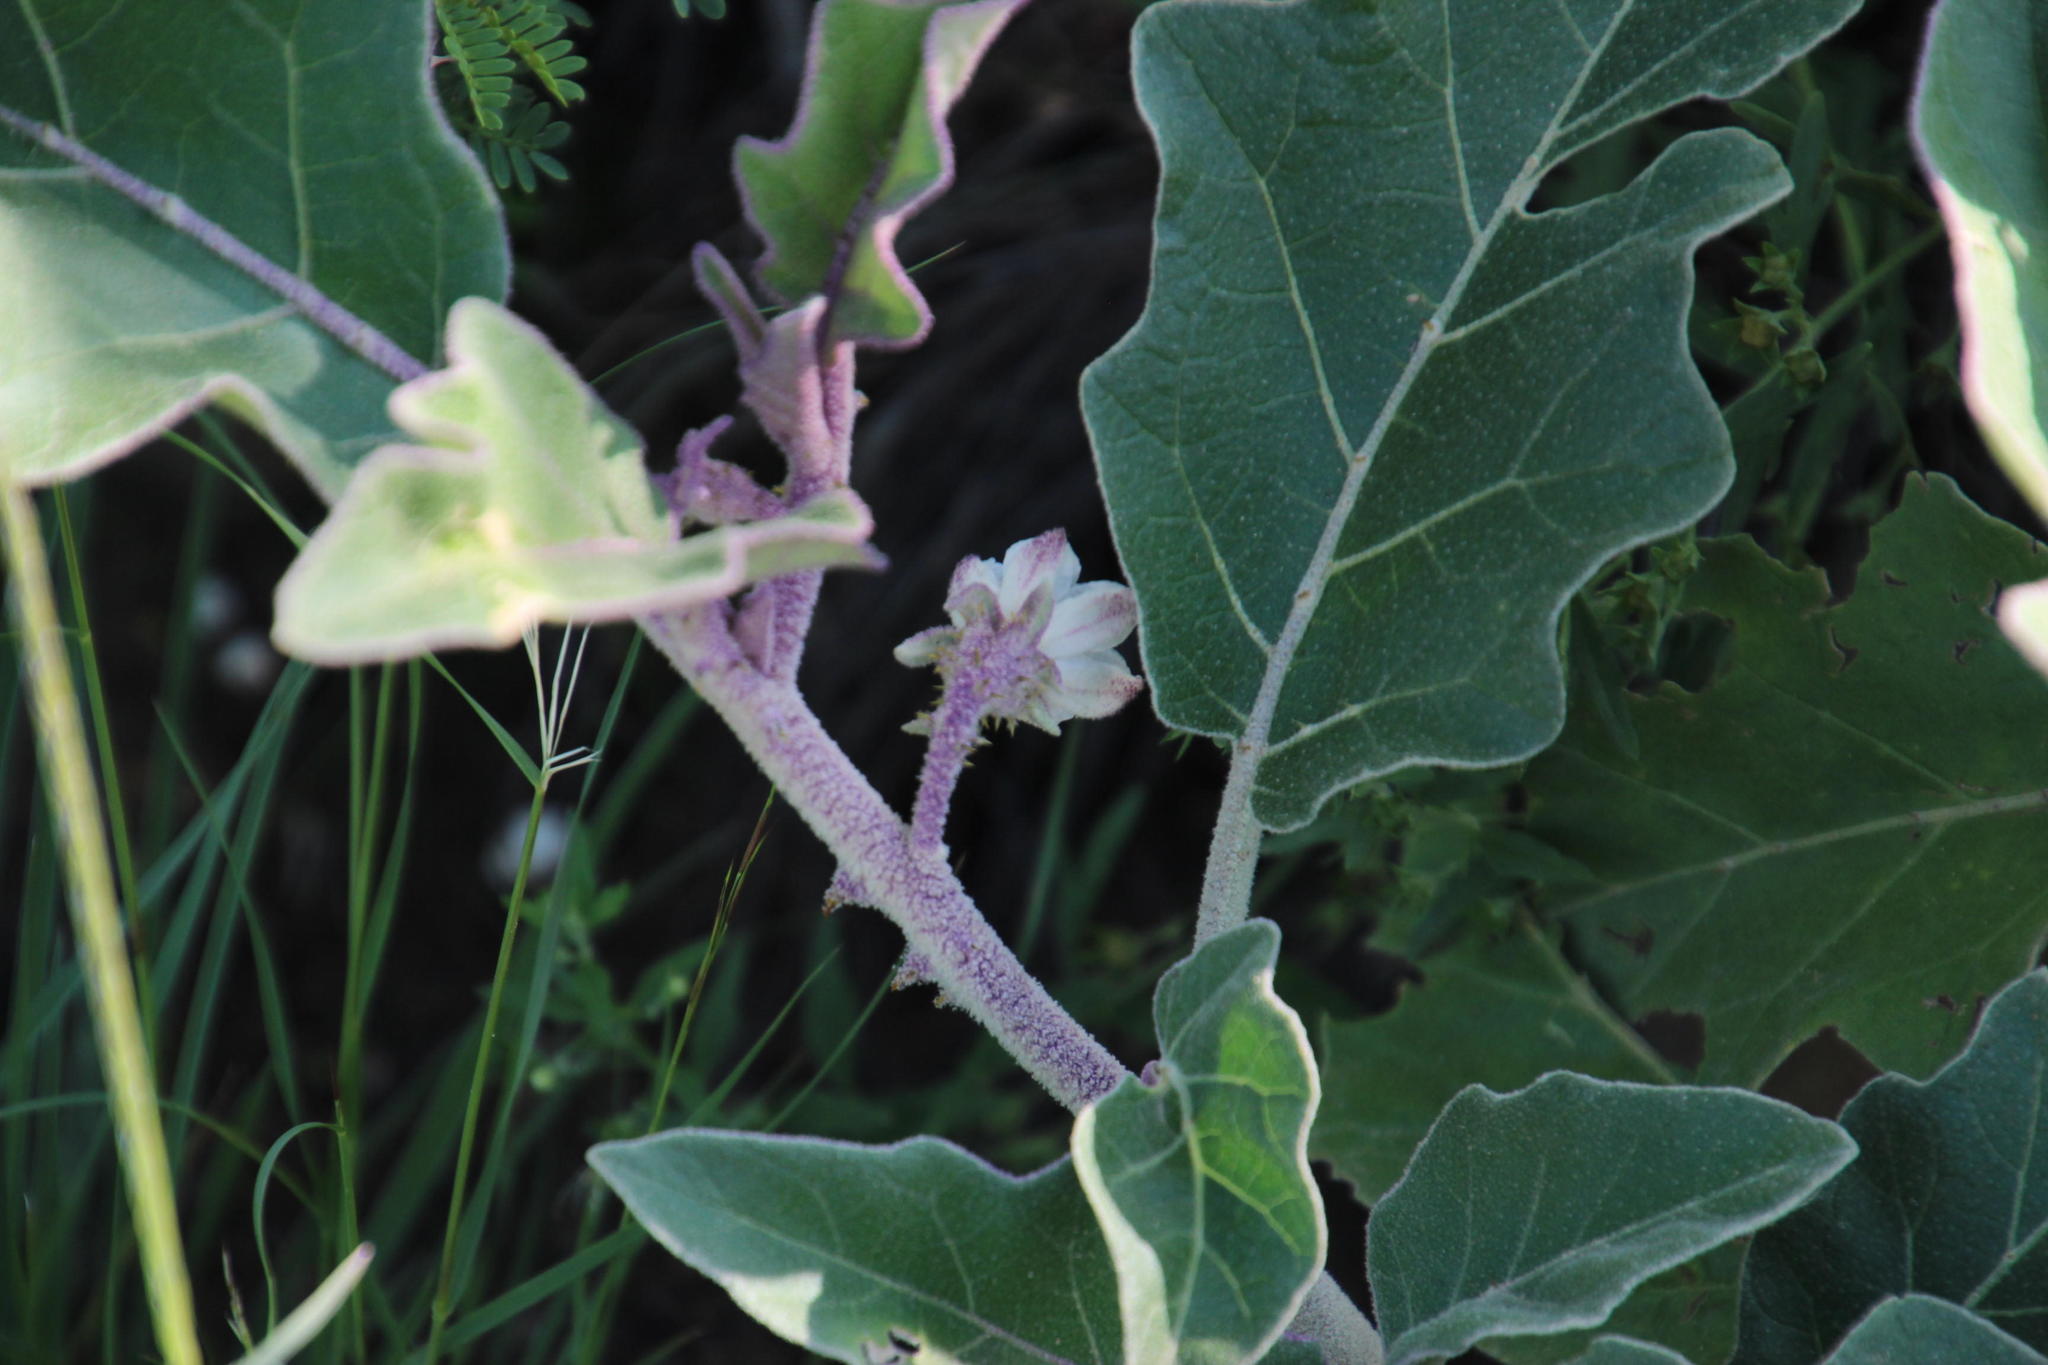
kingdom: Plantae
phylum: Tracheophyta
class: Magnoliopsida
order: Solanales
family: Solanaceae
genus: Solanum
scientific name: Solanum lichtensteinii
